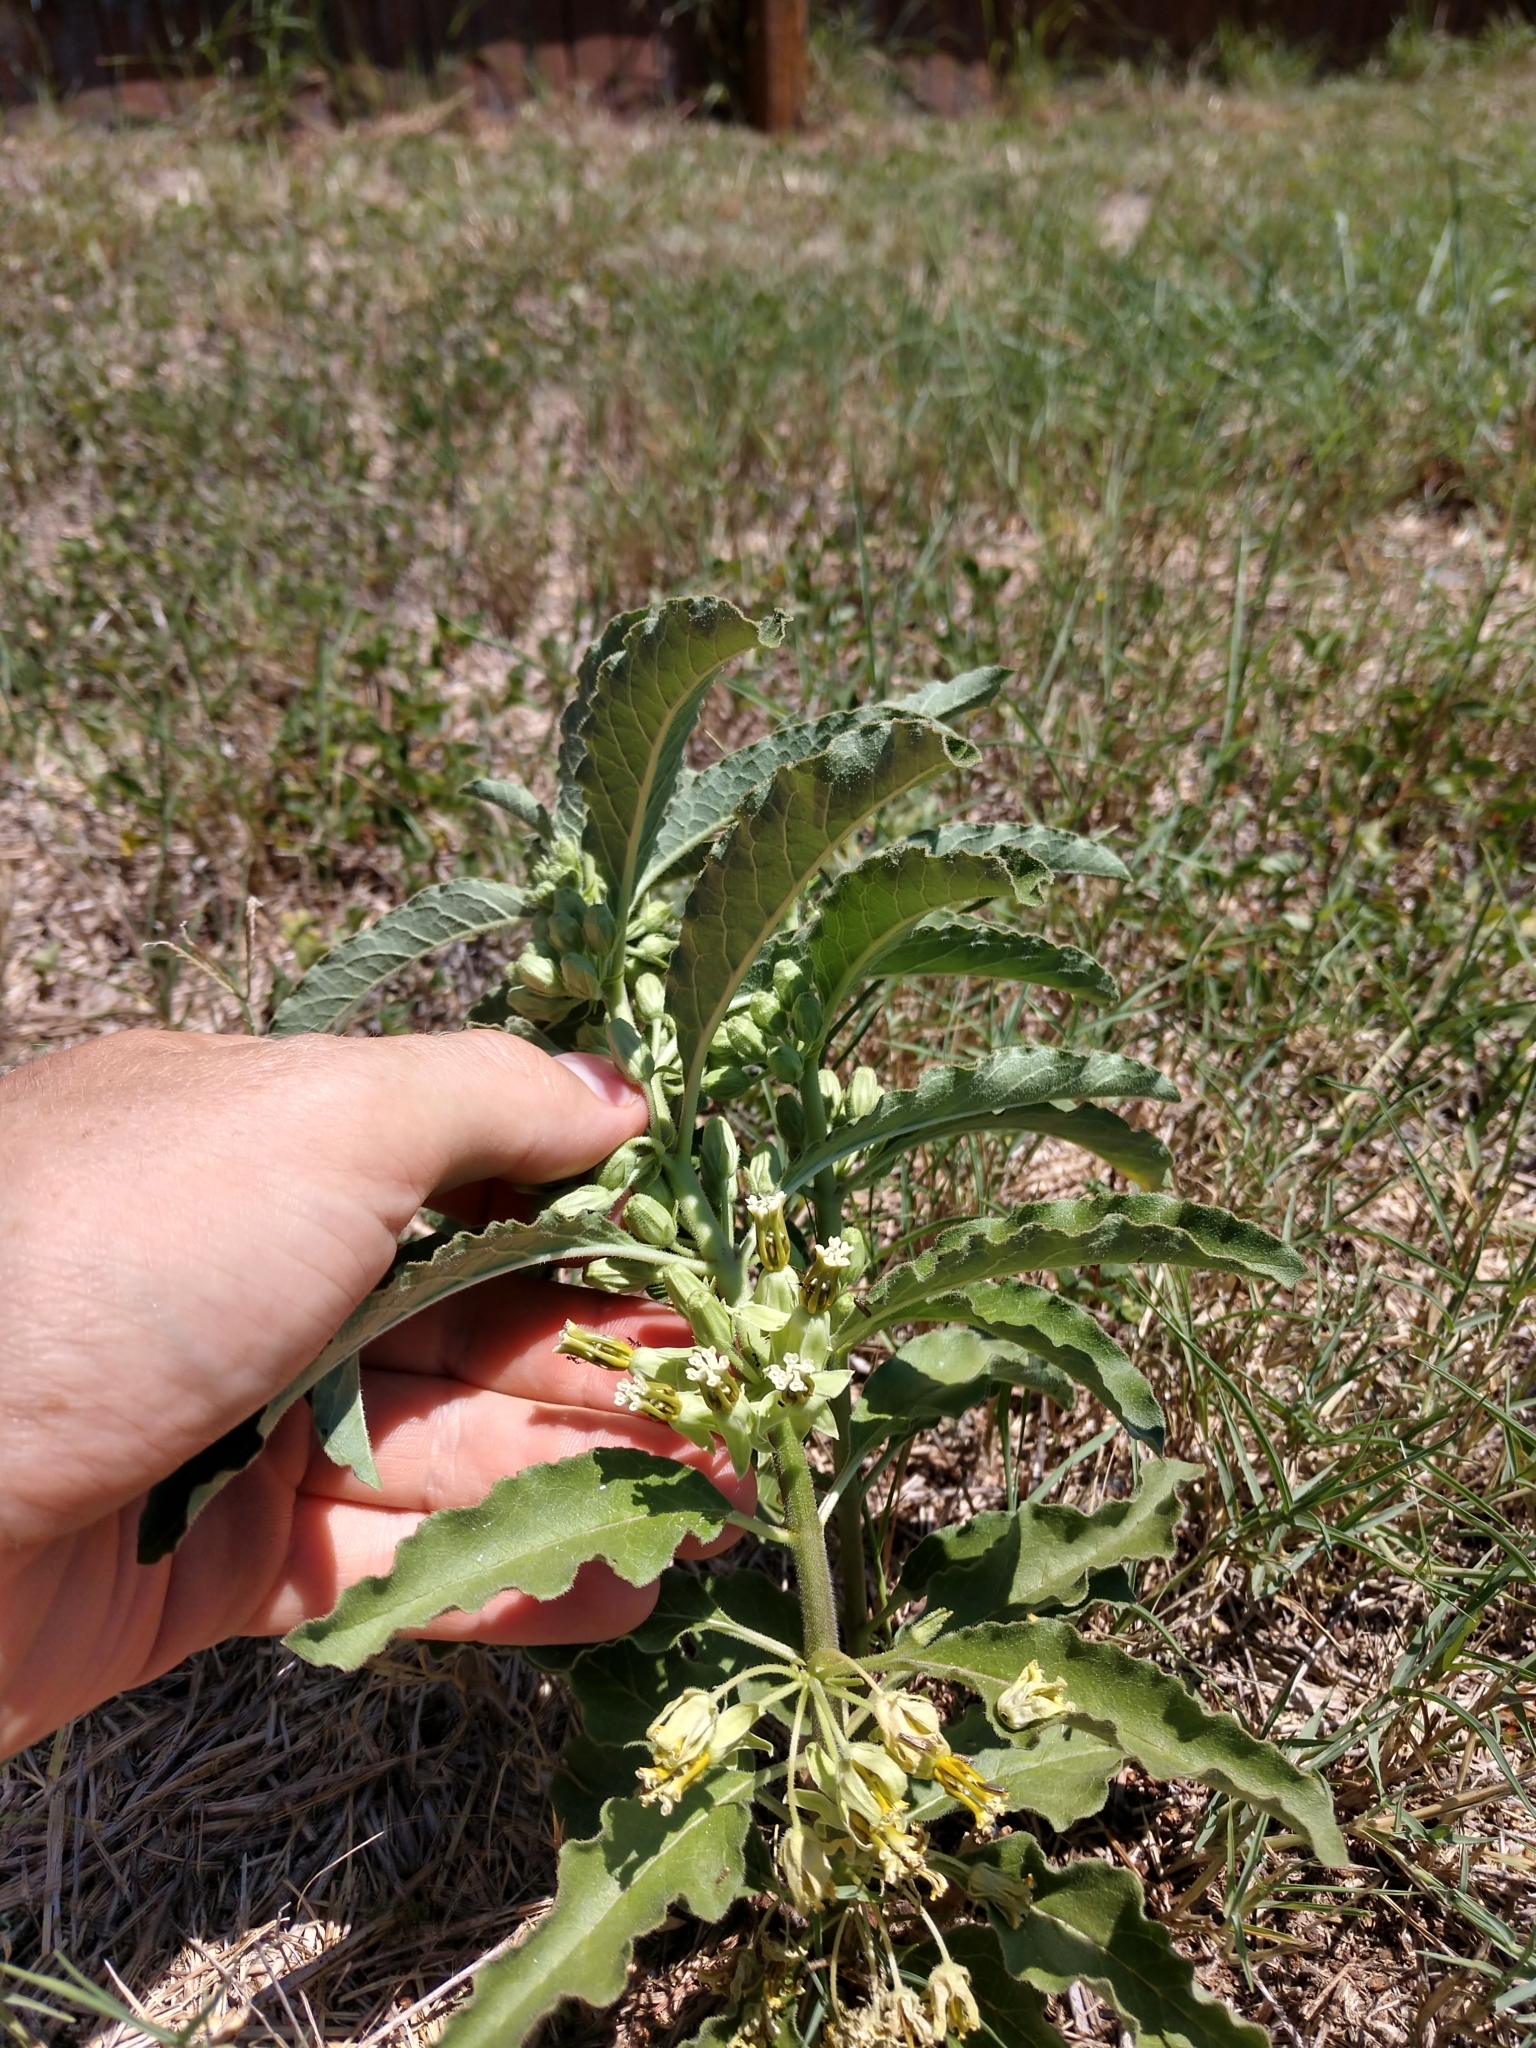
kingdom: Plantae
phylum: Tracheophyta
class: Magnoliopsida
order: Gentianales
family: Apocynaceae
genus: Asclepias
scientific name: Asclepias oenotheroides
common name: Zizotes milkweed
